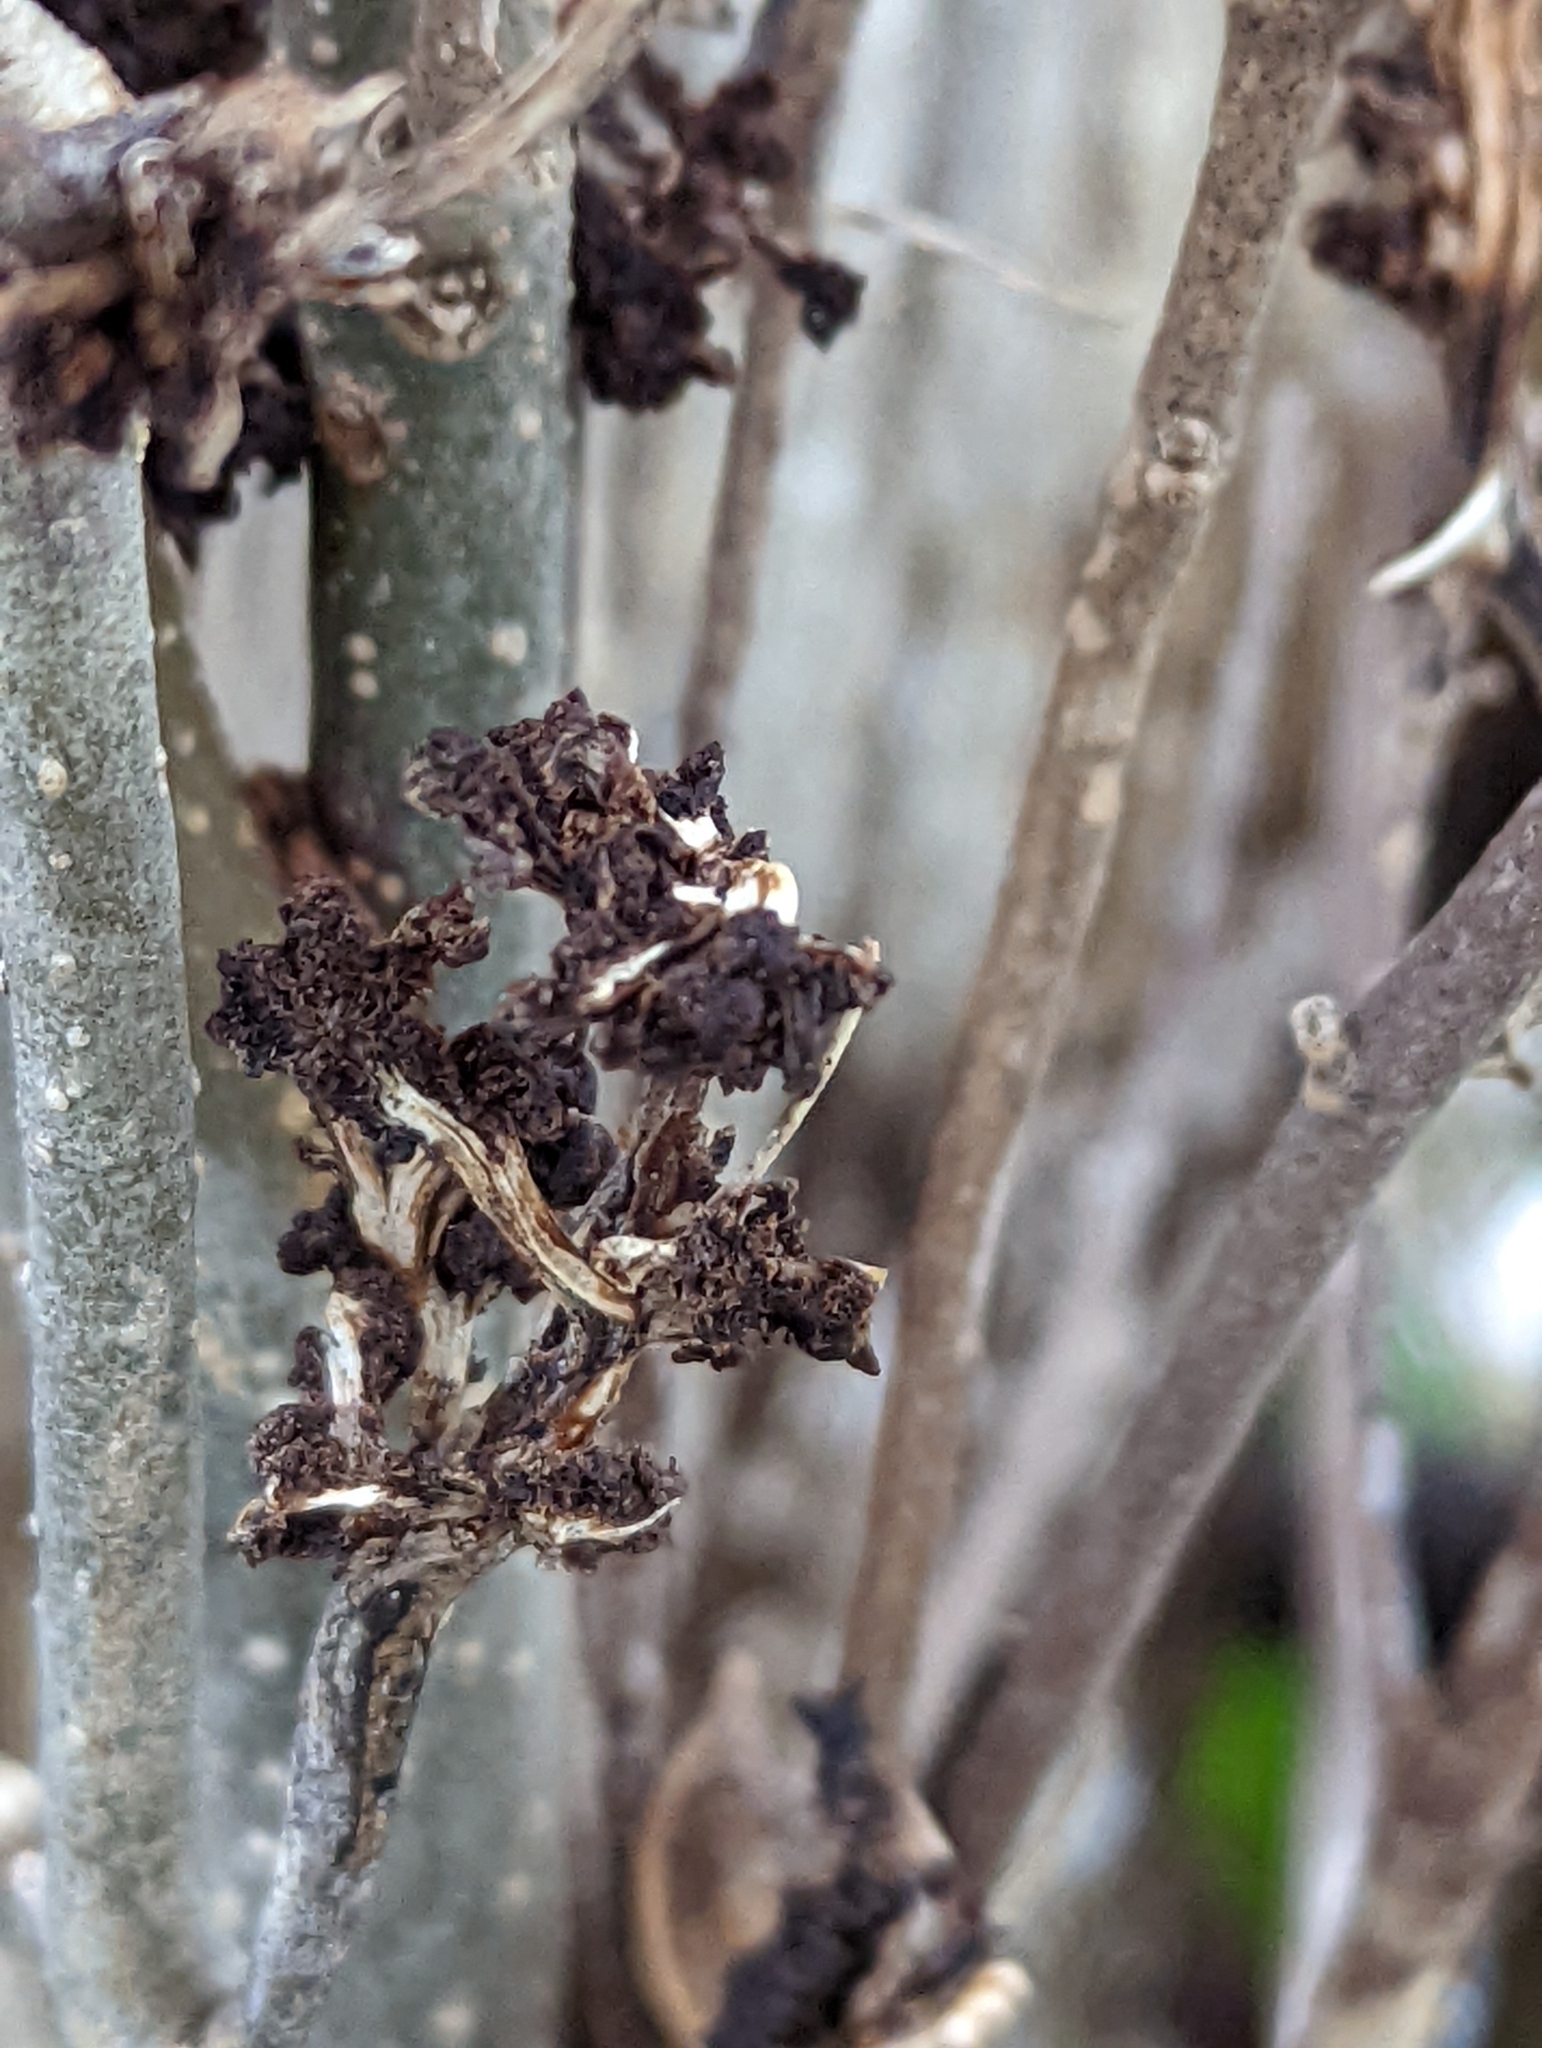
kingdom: Animalia
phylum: Arthropoda
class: Arachnida
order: Trombidiformes
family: Eriophyidae
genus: Aceria
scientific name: Aceria fraxiniflora
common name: Ash flower gall mite
